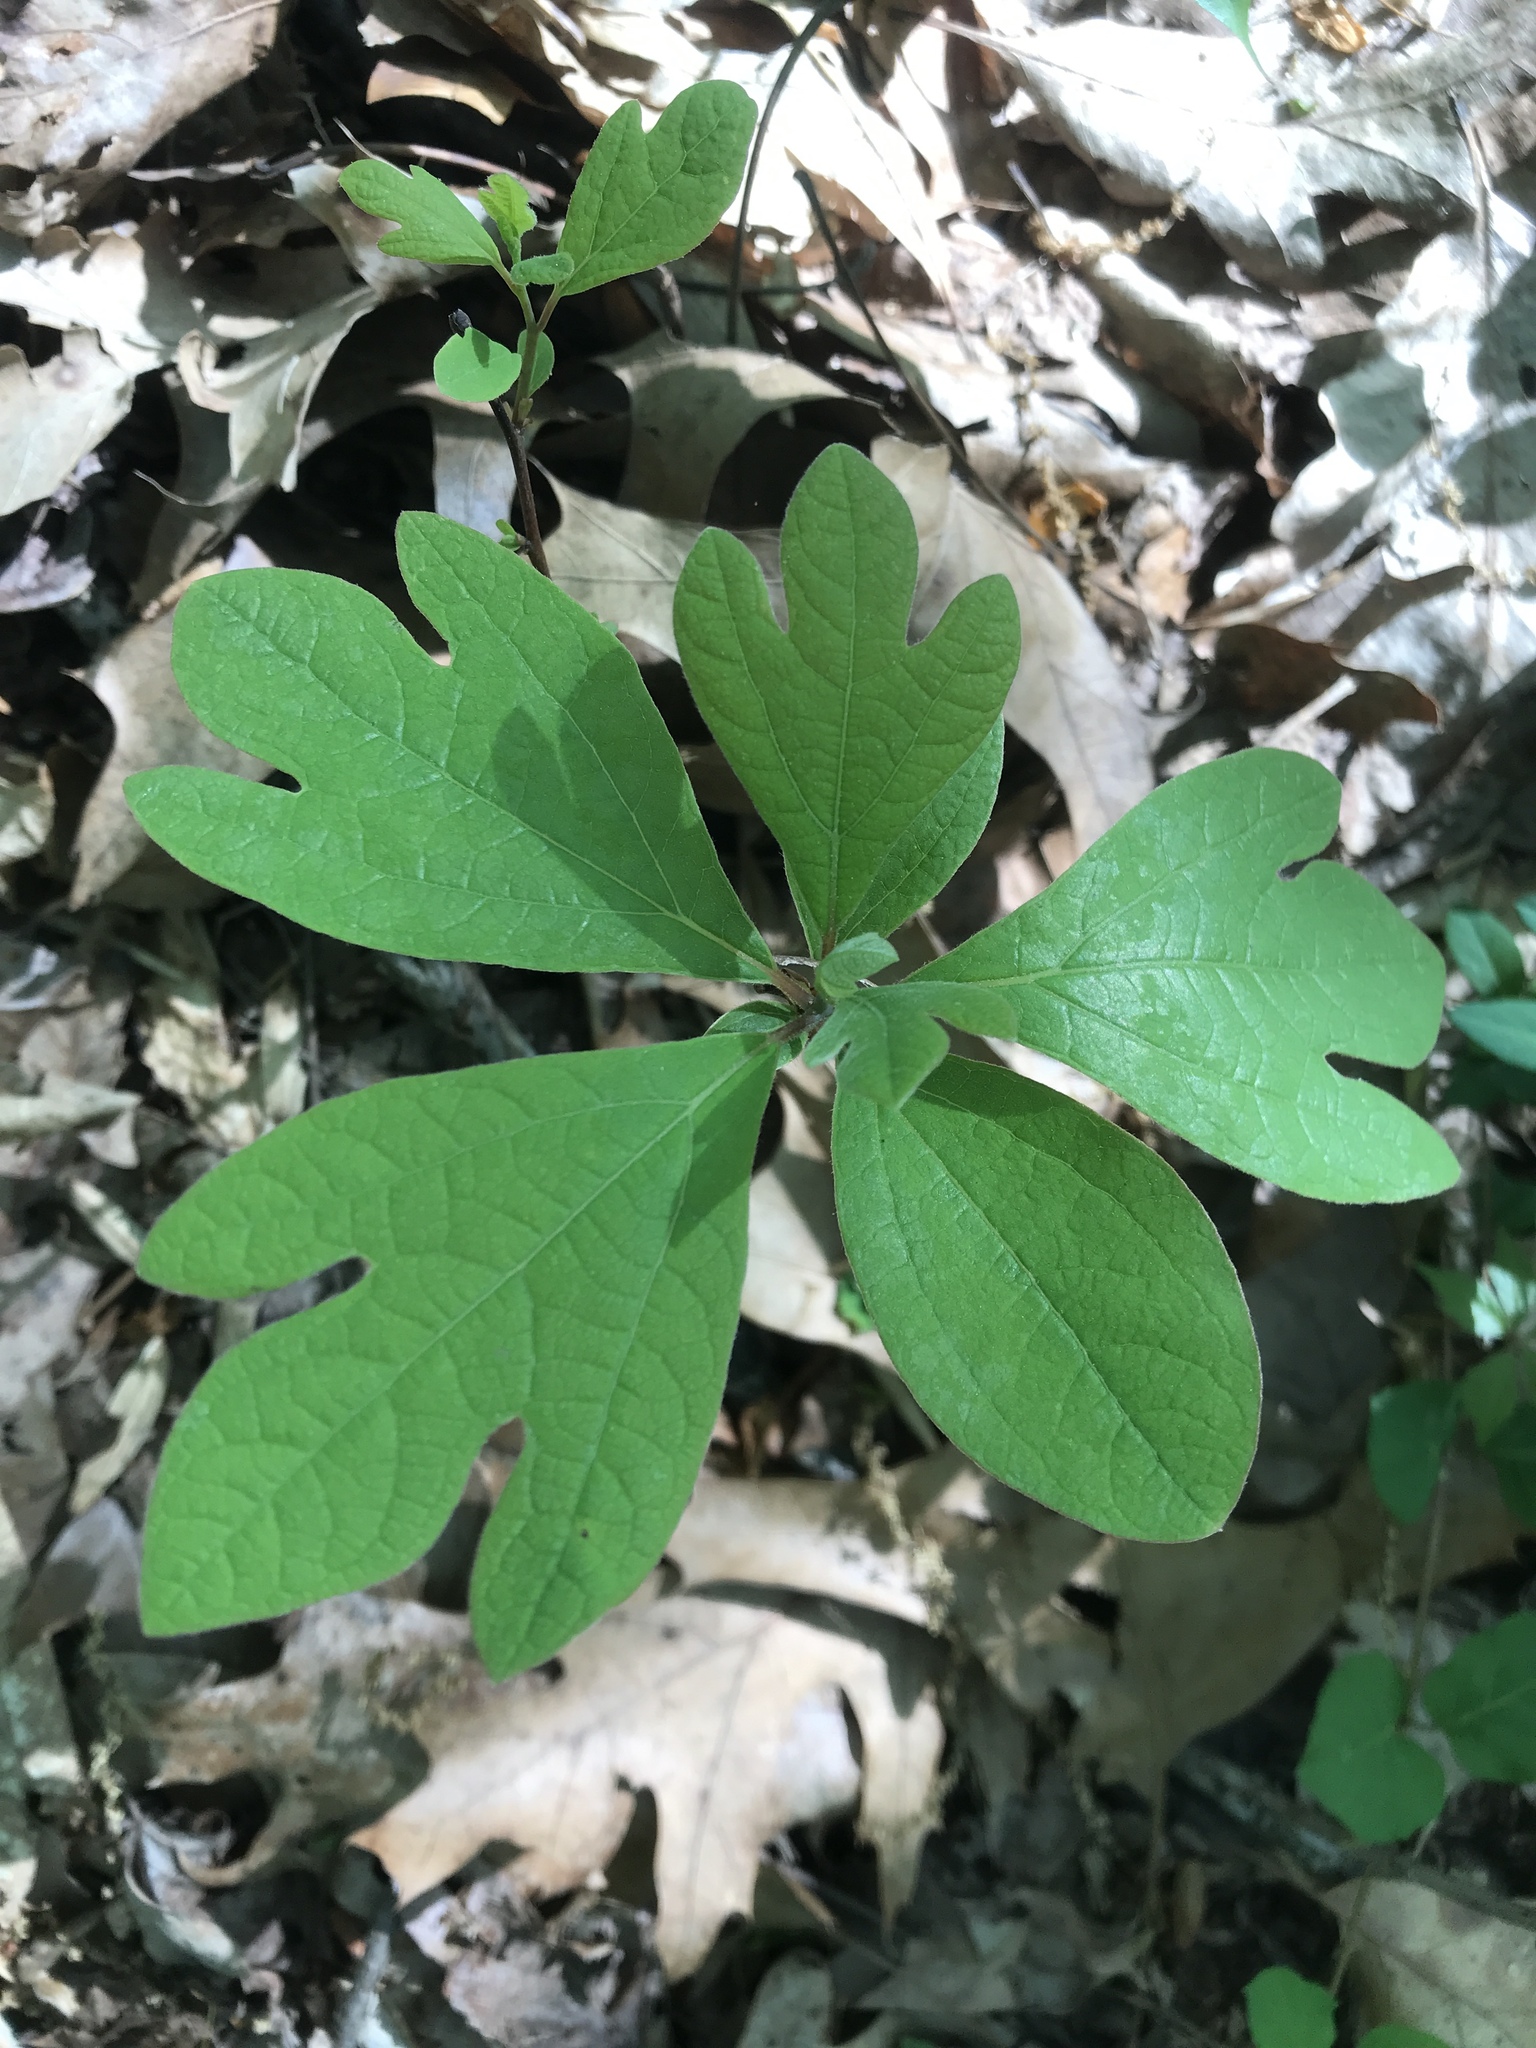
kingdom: Plantae
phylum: Tracheophyta
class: Magnoliopsida
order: Laurales
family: Lauraceae
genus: Sassafras
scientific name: Sassafras albidum
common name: Sassafras
